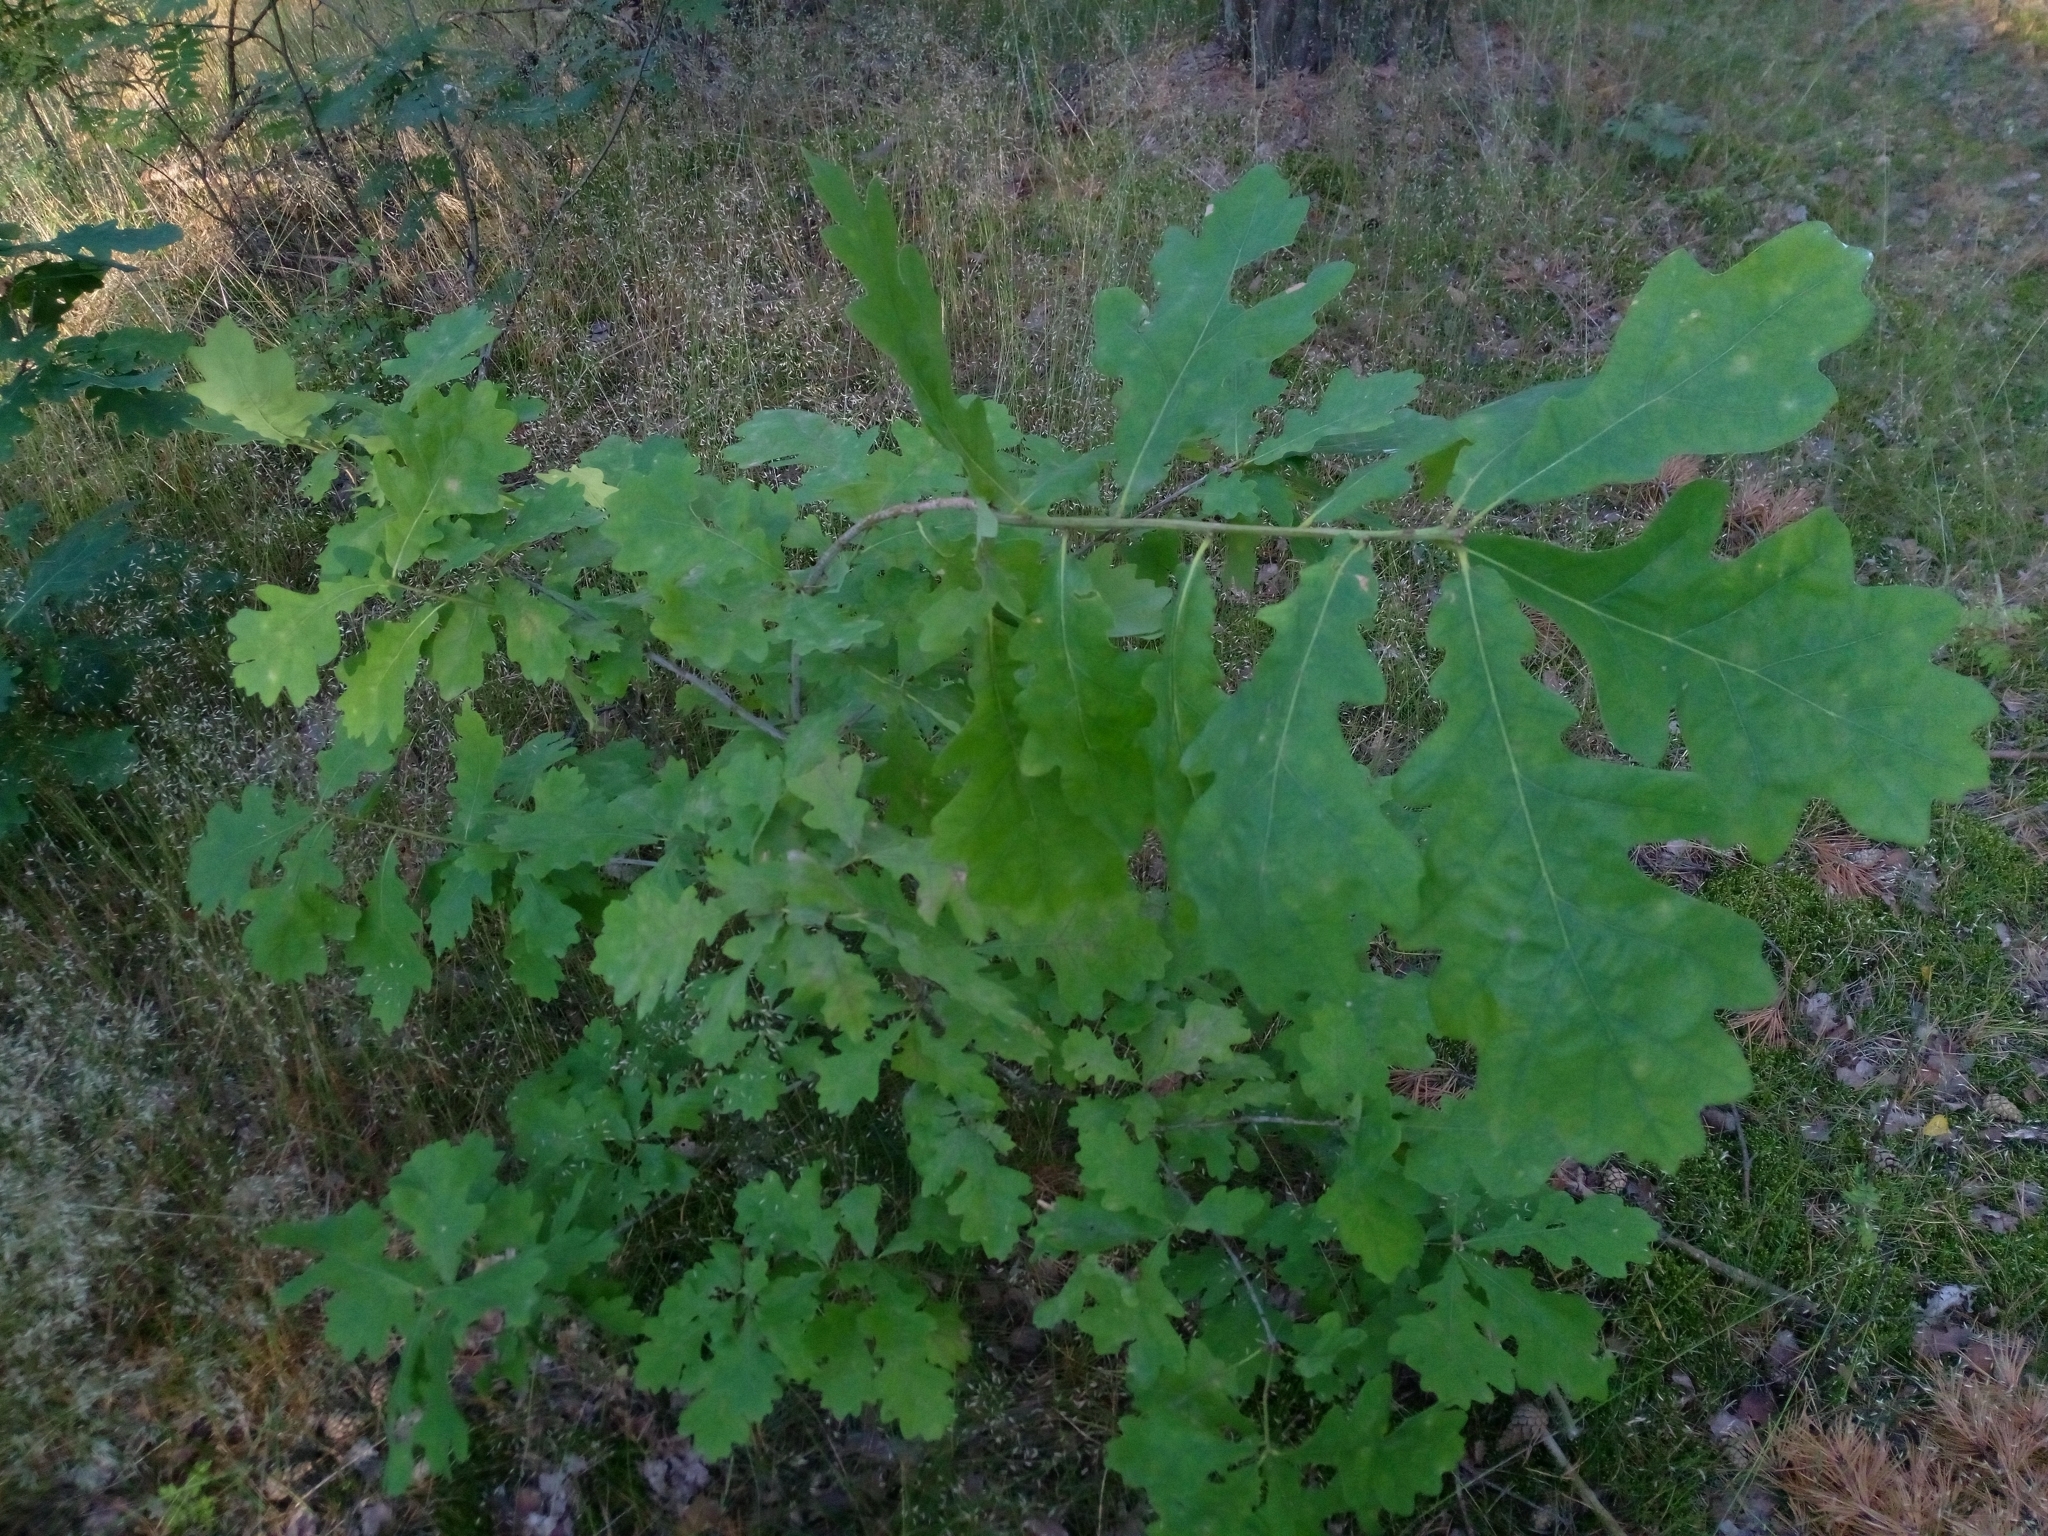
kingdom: Plantae
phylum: Tracheophyta
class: Magnoliopsida
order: Fagales
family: Fagaceae
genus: Quercus
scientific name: Quercus robur
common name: Pedunculate oak
